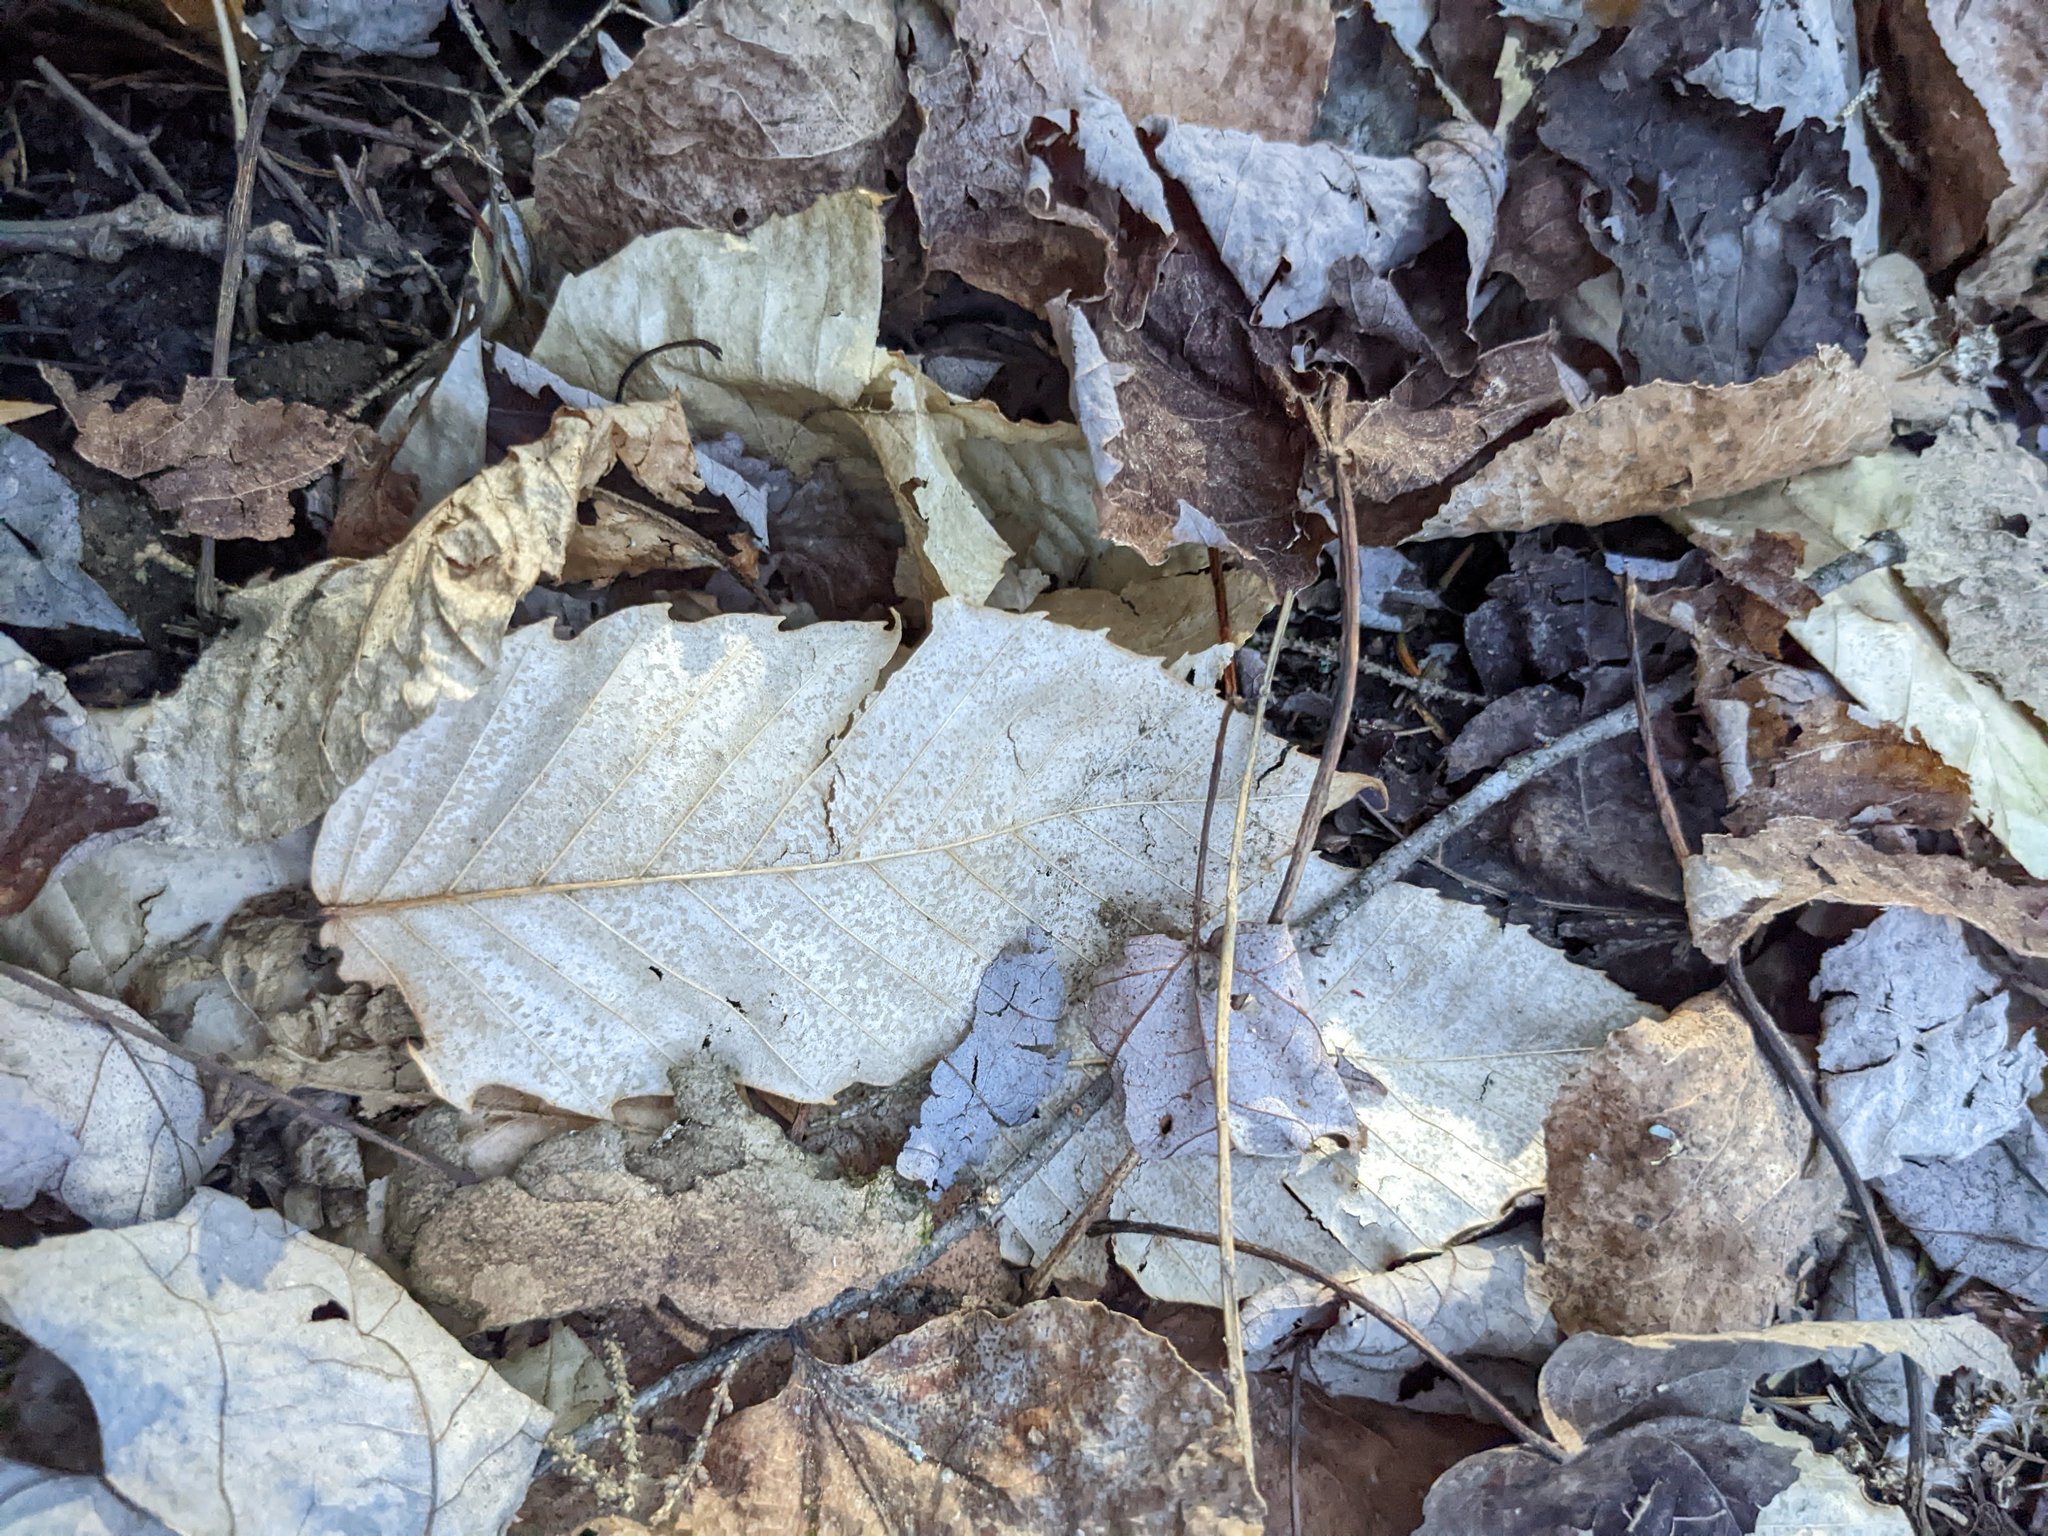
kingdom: Plantae
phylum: Tracheophyta
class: Magnoliopsida
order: Fagales
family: Fagaceae
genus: Fagus
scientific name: Fagus grandifolia
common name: American beech
